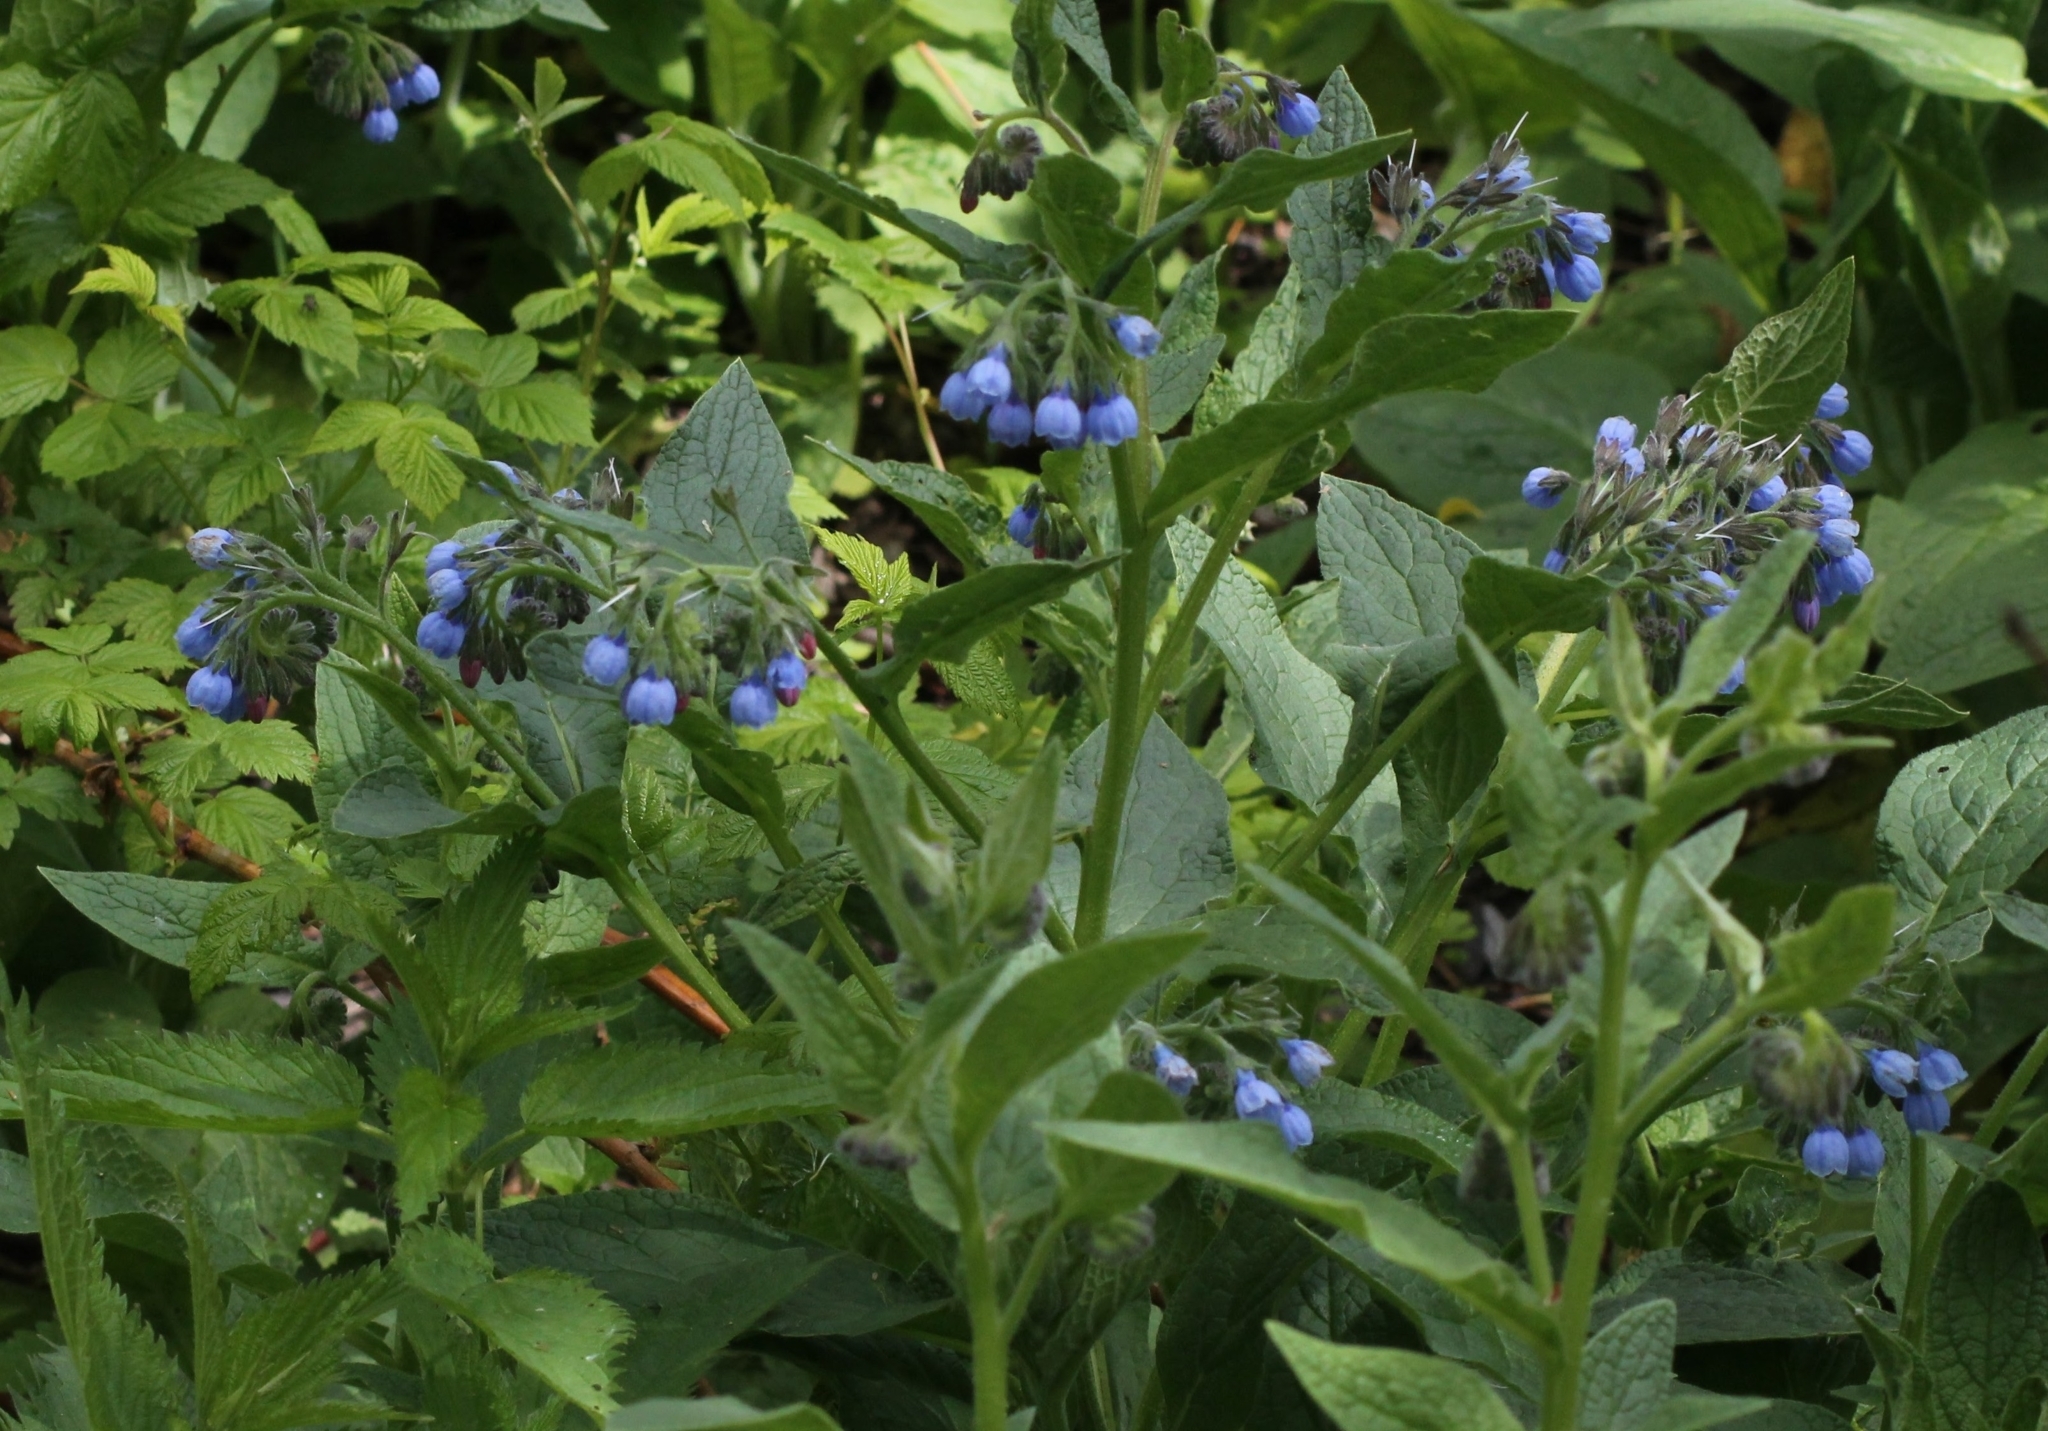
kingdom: Plantae
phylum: Tracheophyta
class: Magnoliopsida
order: Boraginales
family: Boraginaceae
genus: Symphytum
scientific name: Symphytum caucasicum
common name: Caucasian comfrey
